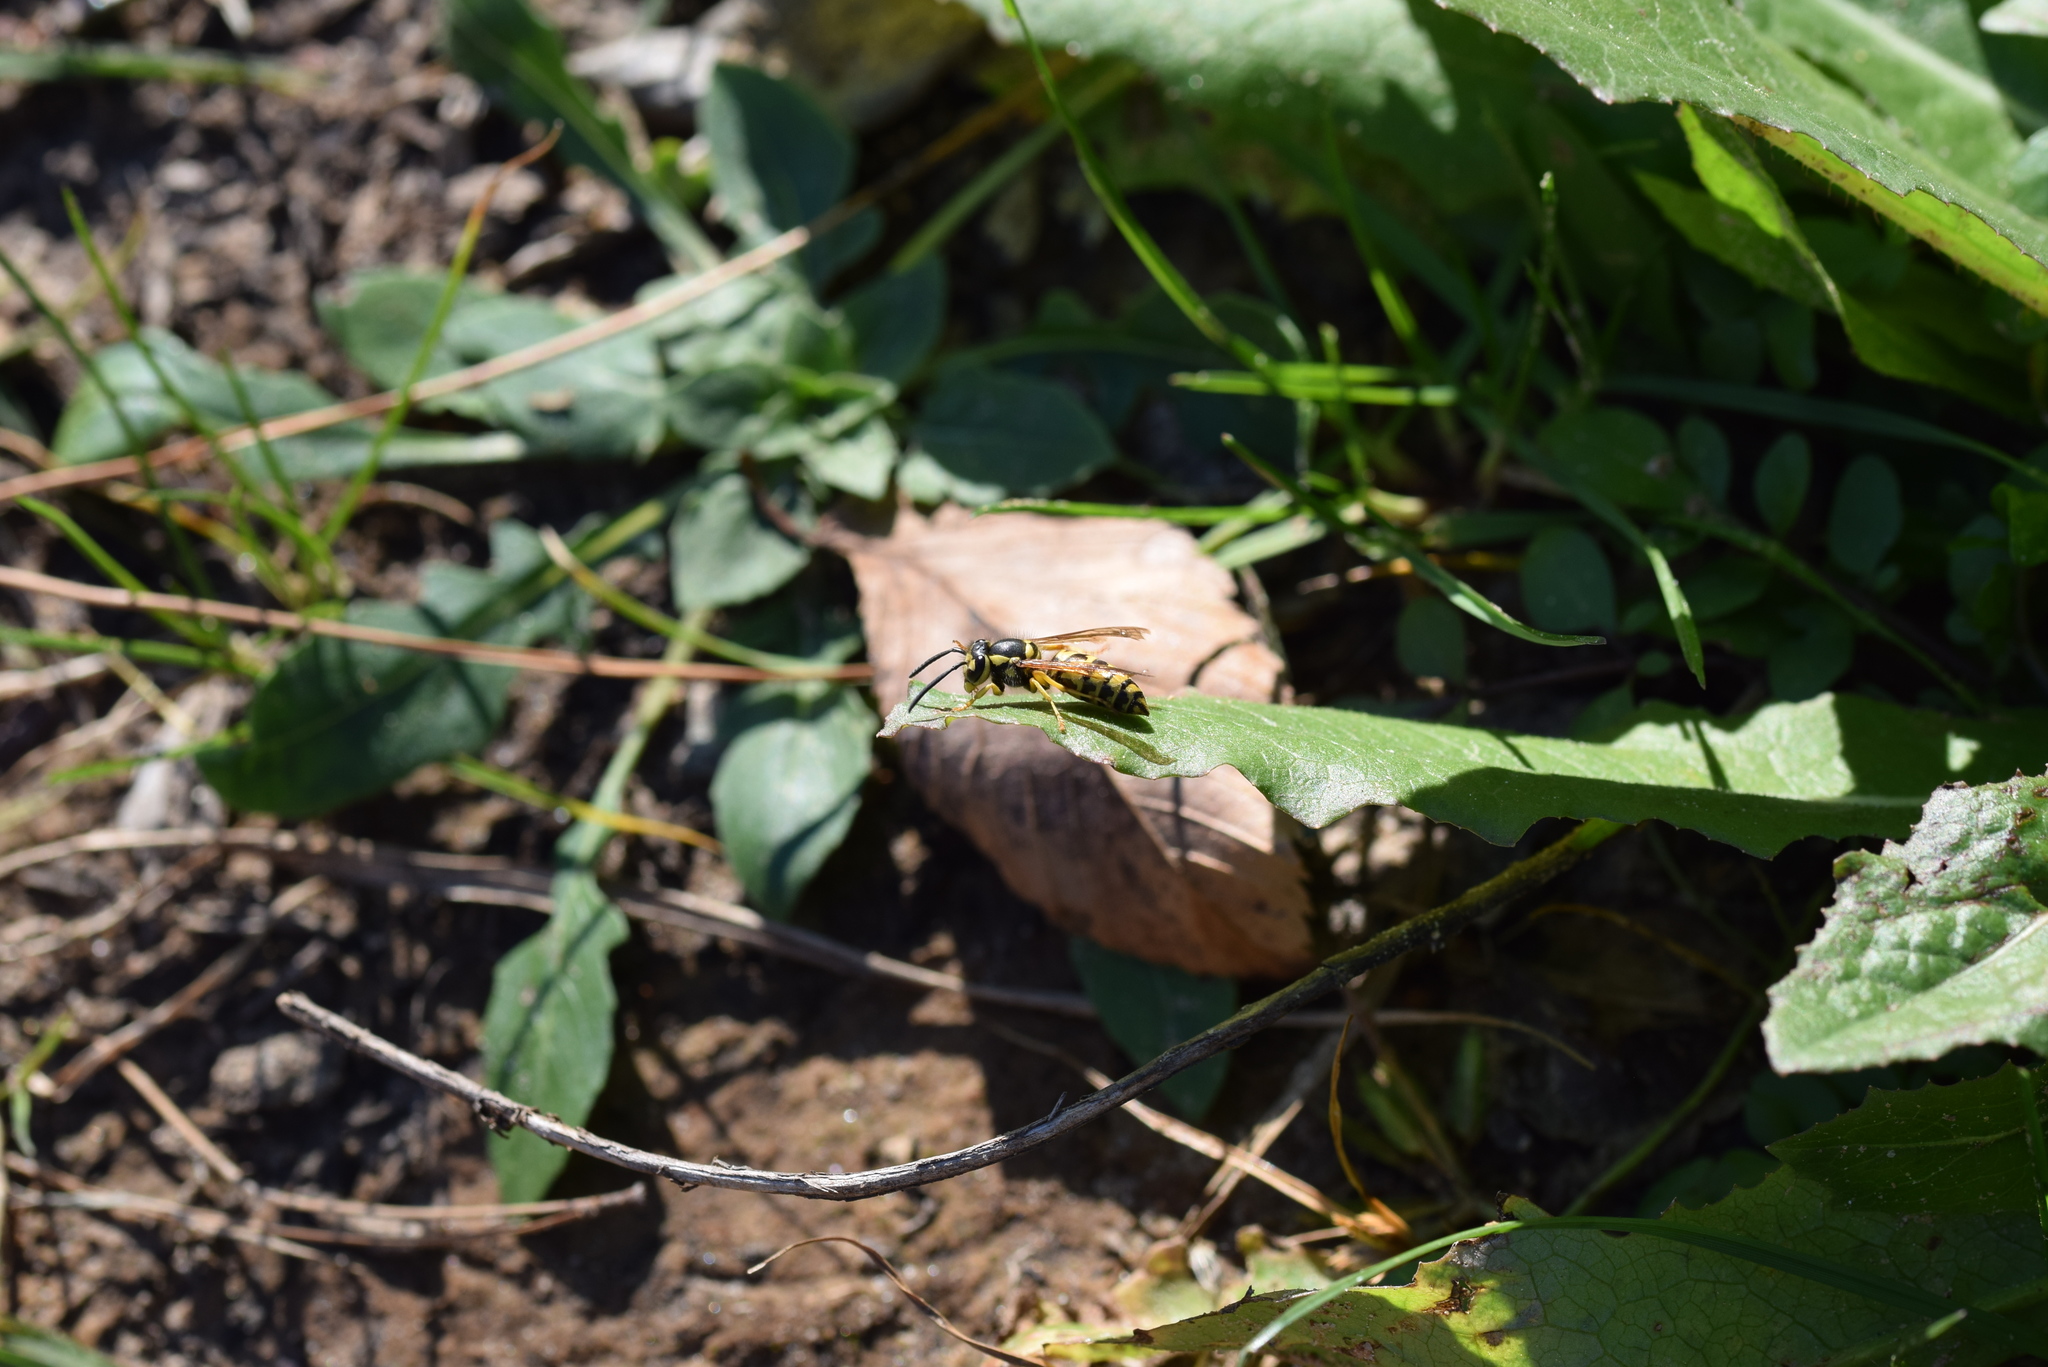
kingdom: Animalia
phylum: Arthropoda
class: Insecta
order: Hymenoptera
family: Vespidae
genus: Vespula
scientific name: Vespula maculifrons
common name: Eastern yellowjacket
